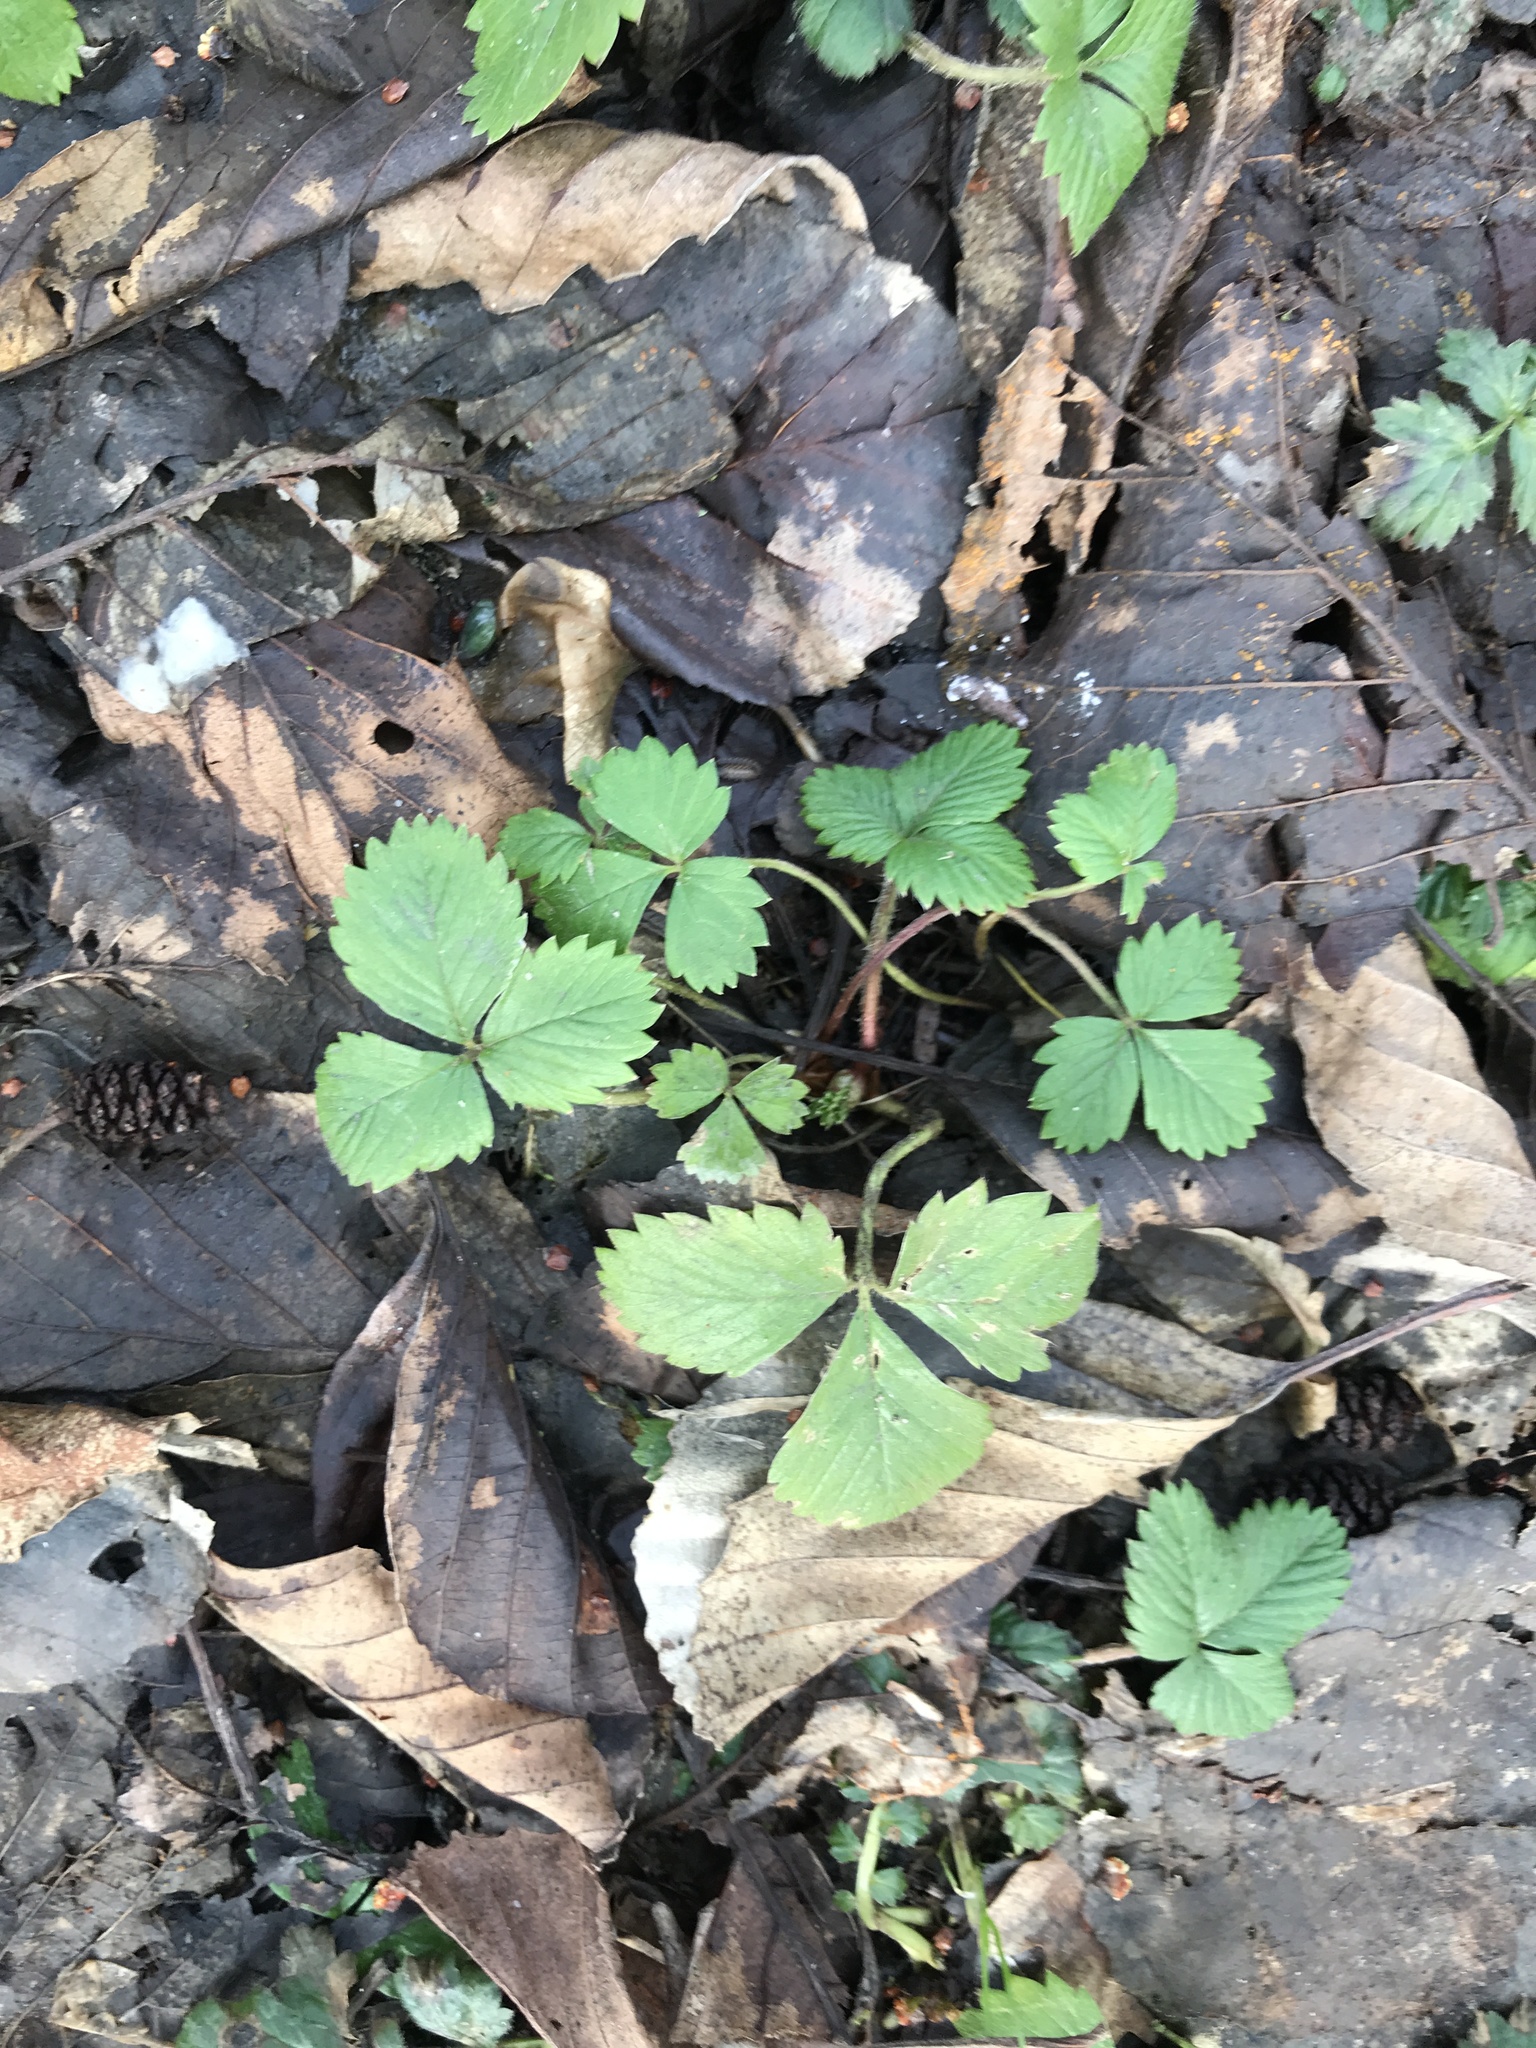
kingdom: Plantae
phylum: Tracheophyta
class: Magnoliopsida
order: Rosales
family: Rosaceae
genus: Fragaria
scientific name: Fragaria vesca
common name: Wild strawberry
